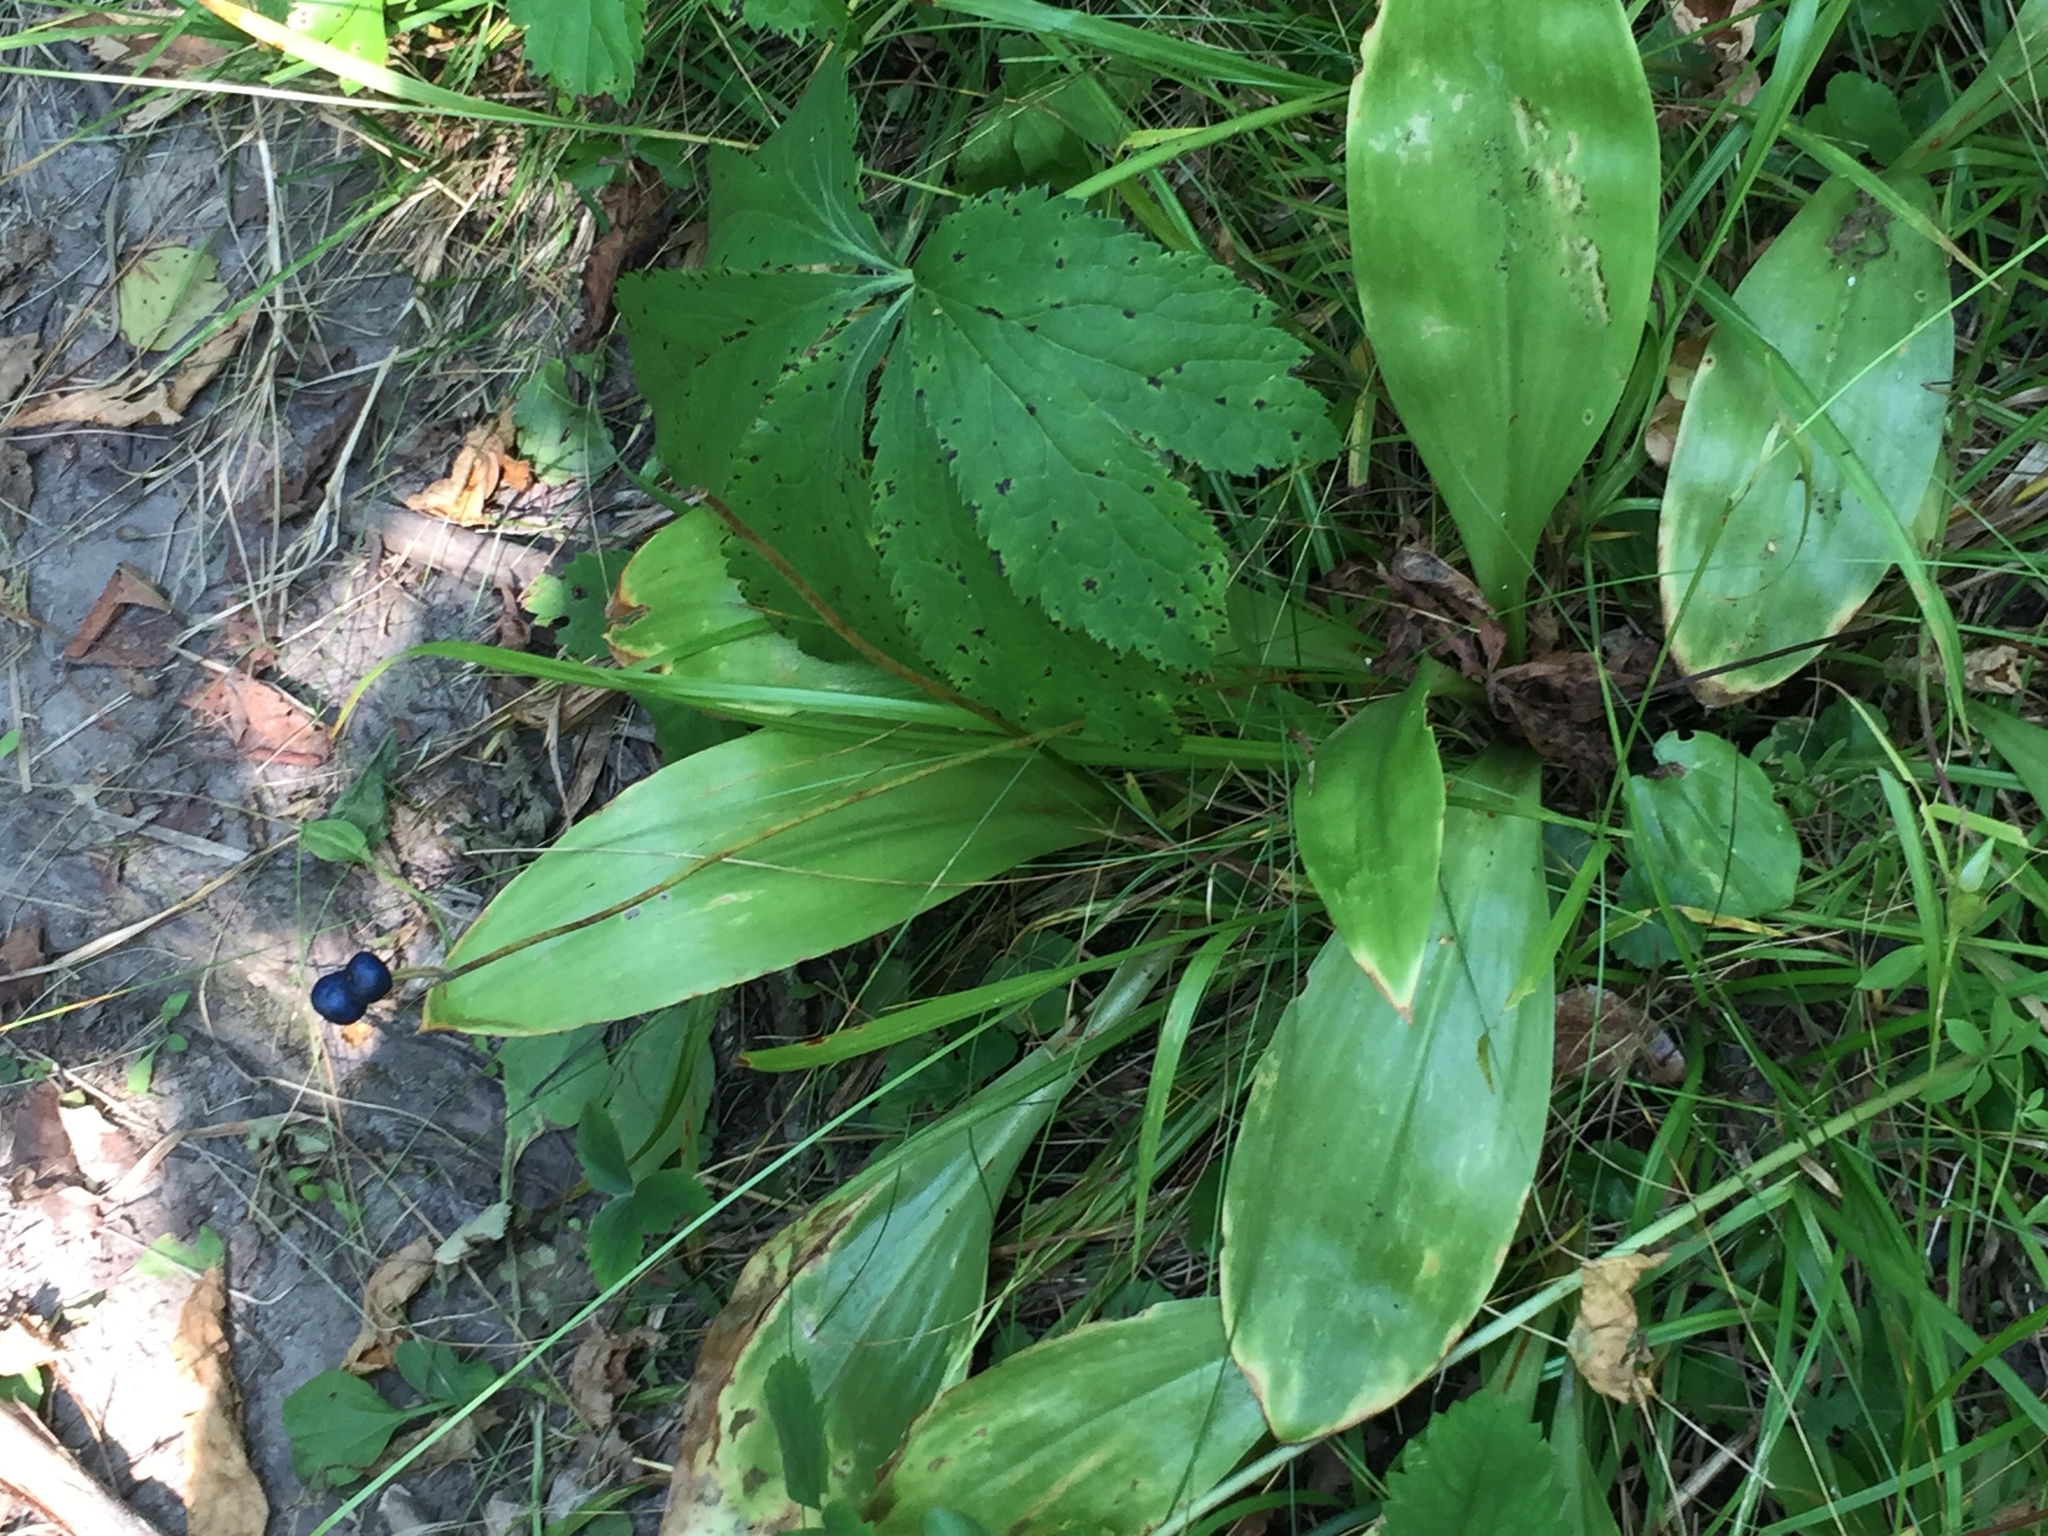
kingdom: Plantae
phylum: Tracheophyta
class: Liliopsida
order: Liliales
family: Liliaceae
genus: Clintonia
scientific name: Clintonia borealis
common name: Yellow clintonia
